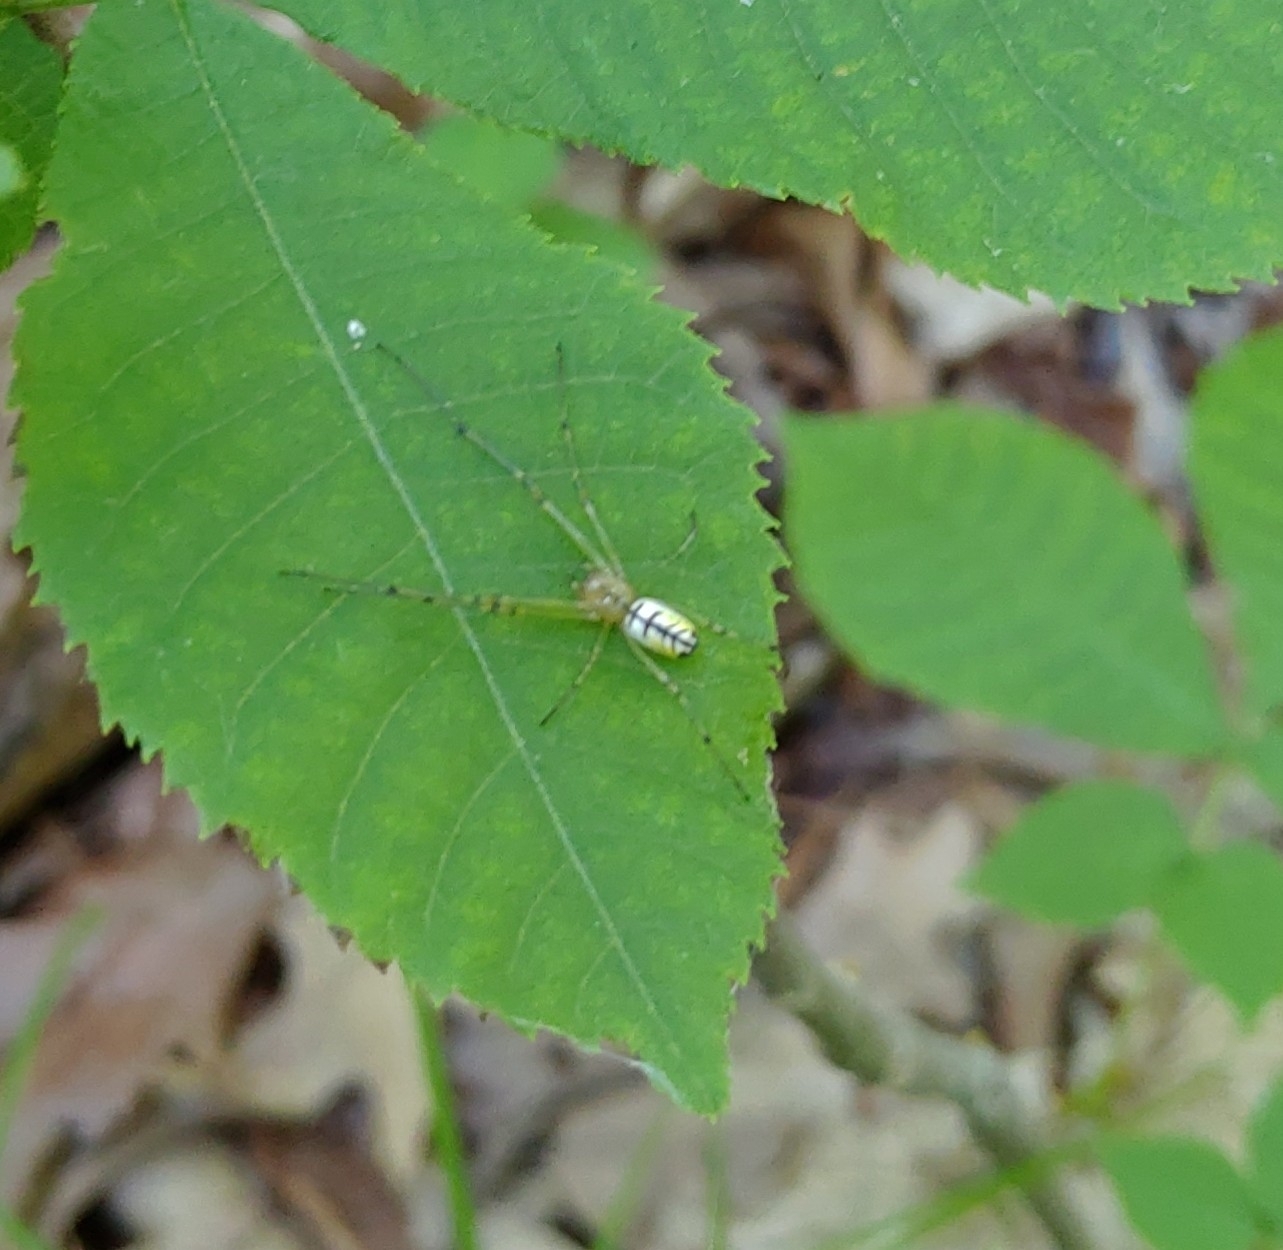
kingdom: Animalia
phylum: Arthropoda
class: Arachnida
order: Araneae
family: Tetragnathidae
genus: Leucauge
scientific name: Leucauge venusta
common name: Longjawed orb weavers
